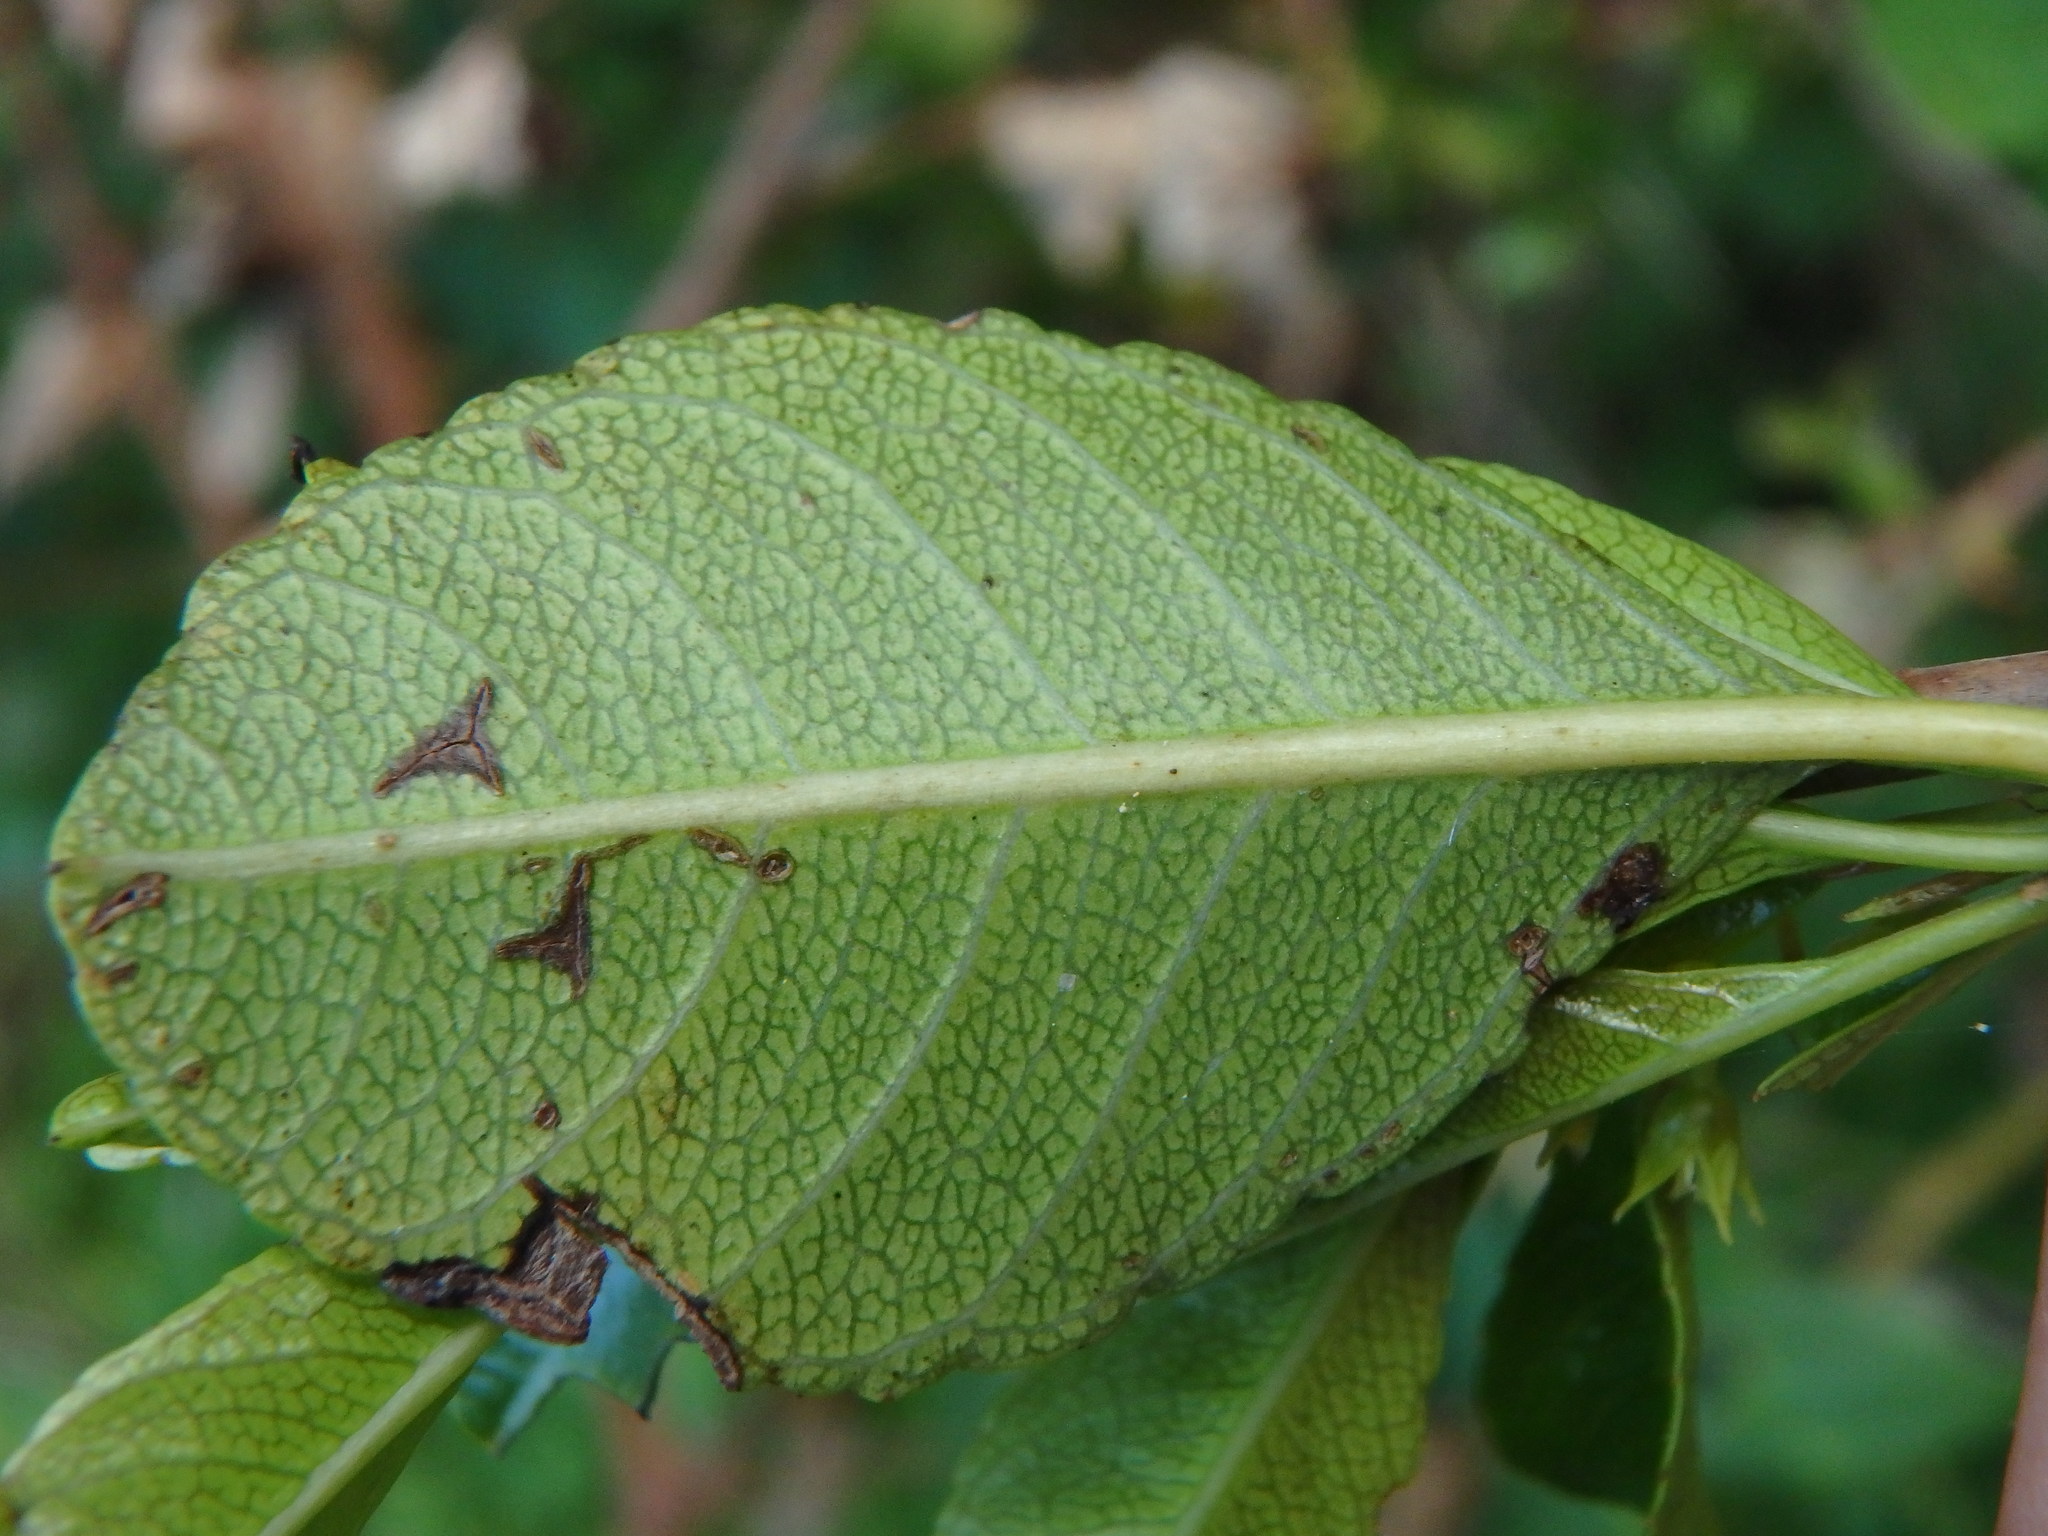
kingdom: Plantae
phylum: Tracheophyta
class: Magnoliopsida
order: Rosales
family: Rhamnaceae
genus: Rhamnus
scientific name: Rhamnus crenulata
